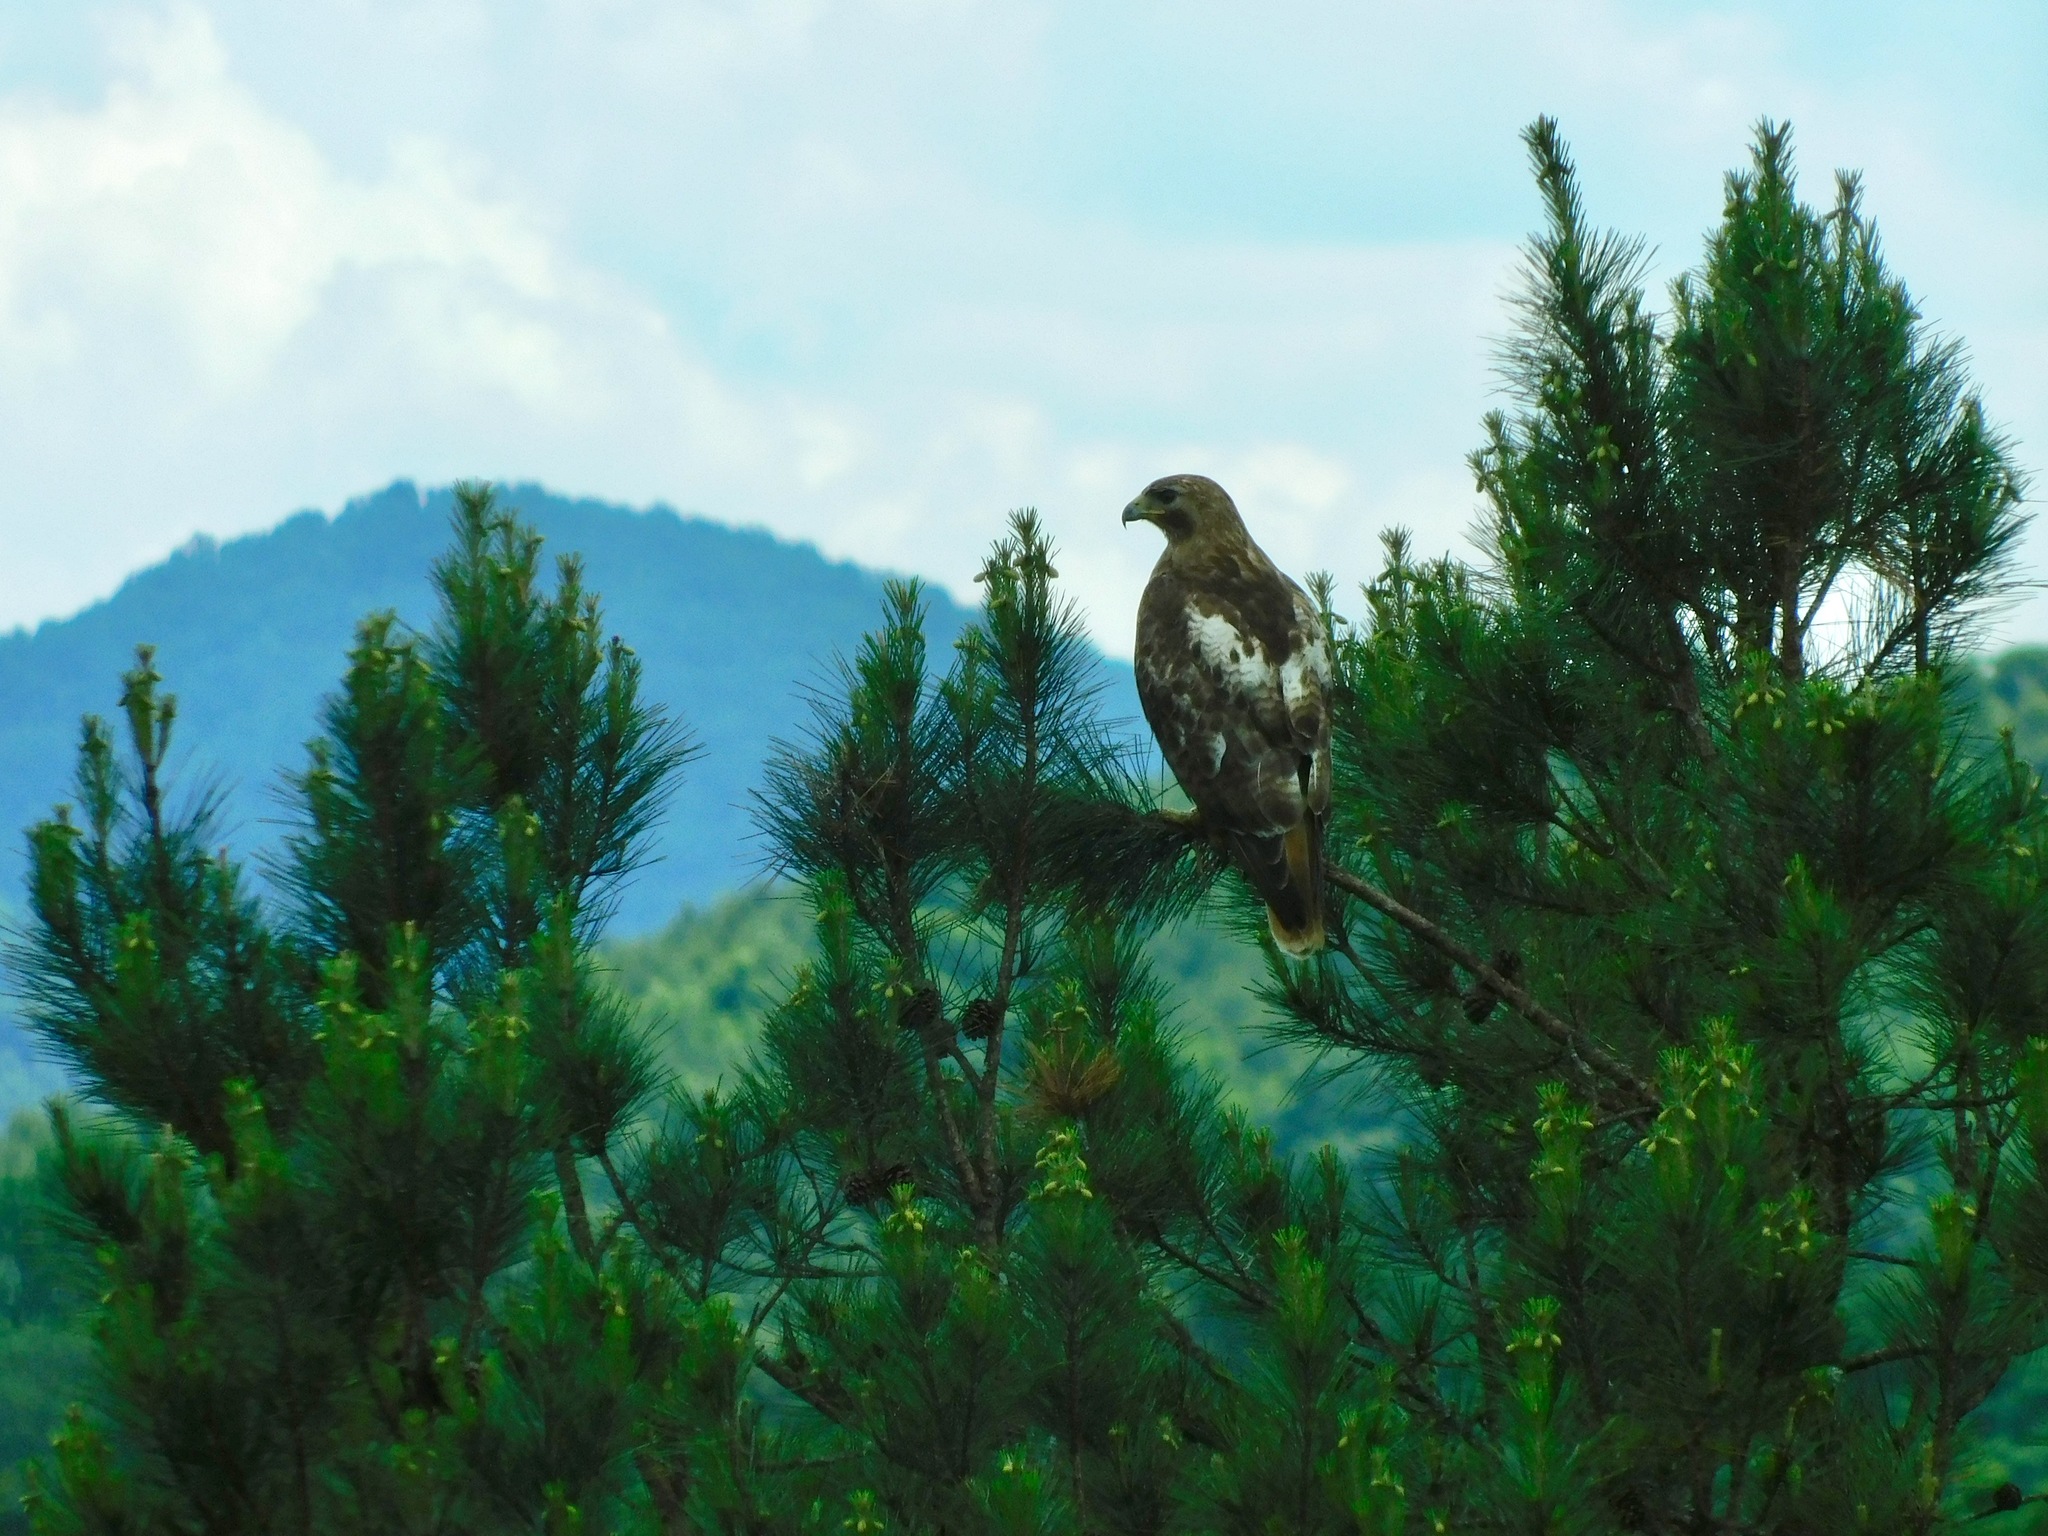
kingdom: Animalia
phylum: Chordata
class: Aves
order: Accipitriformes
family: Accipitridae
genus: Buteo
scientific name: Buteo jamaicensis
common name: Red-tailed hawk
